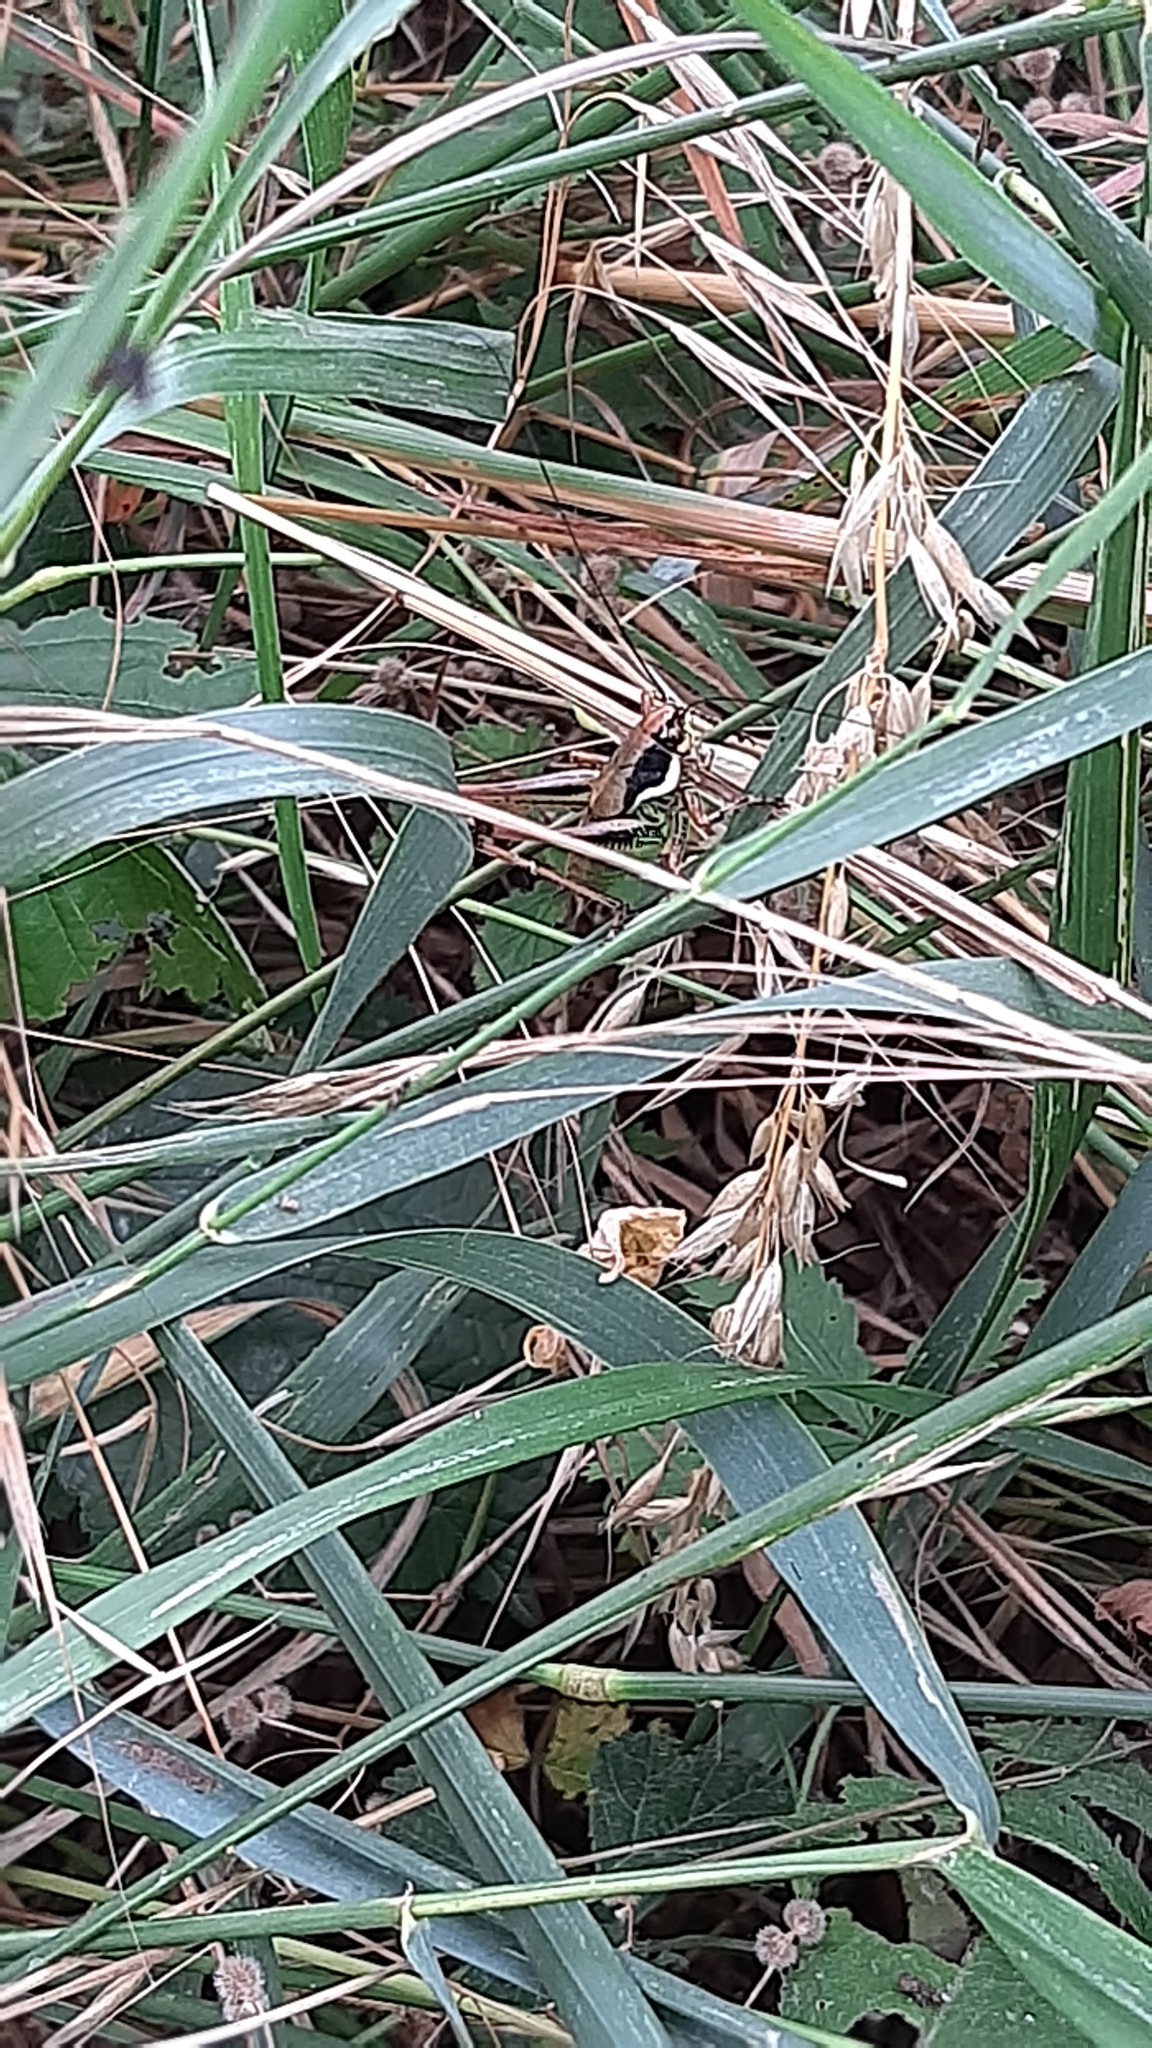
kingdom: Animalia
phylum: Arthropoda
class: Insecta
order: Orthoptera
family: Tettigoniidae
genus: Eupholidoptera
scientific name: Eupholidoptera chabrieri
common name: Chabrier's marbled bush-cricket
